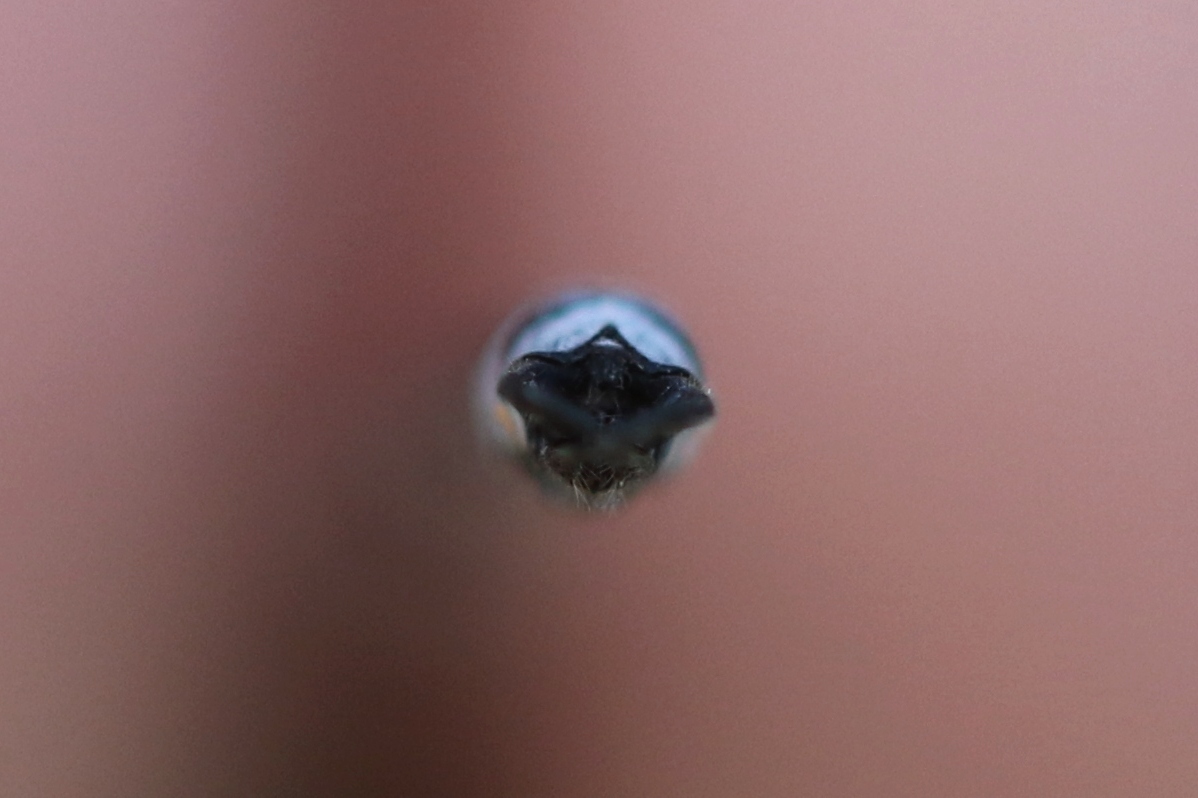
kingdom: Animalia
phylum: Arthropoda
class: Insecta
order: Odonata
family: Lestidae
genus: Lestes
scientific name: Lestes forcipatus
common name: Sweetflag spreadwing
